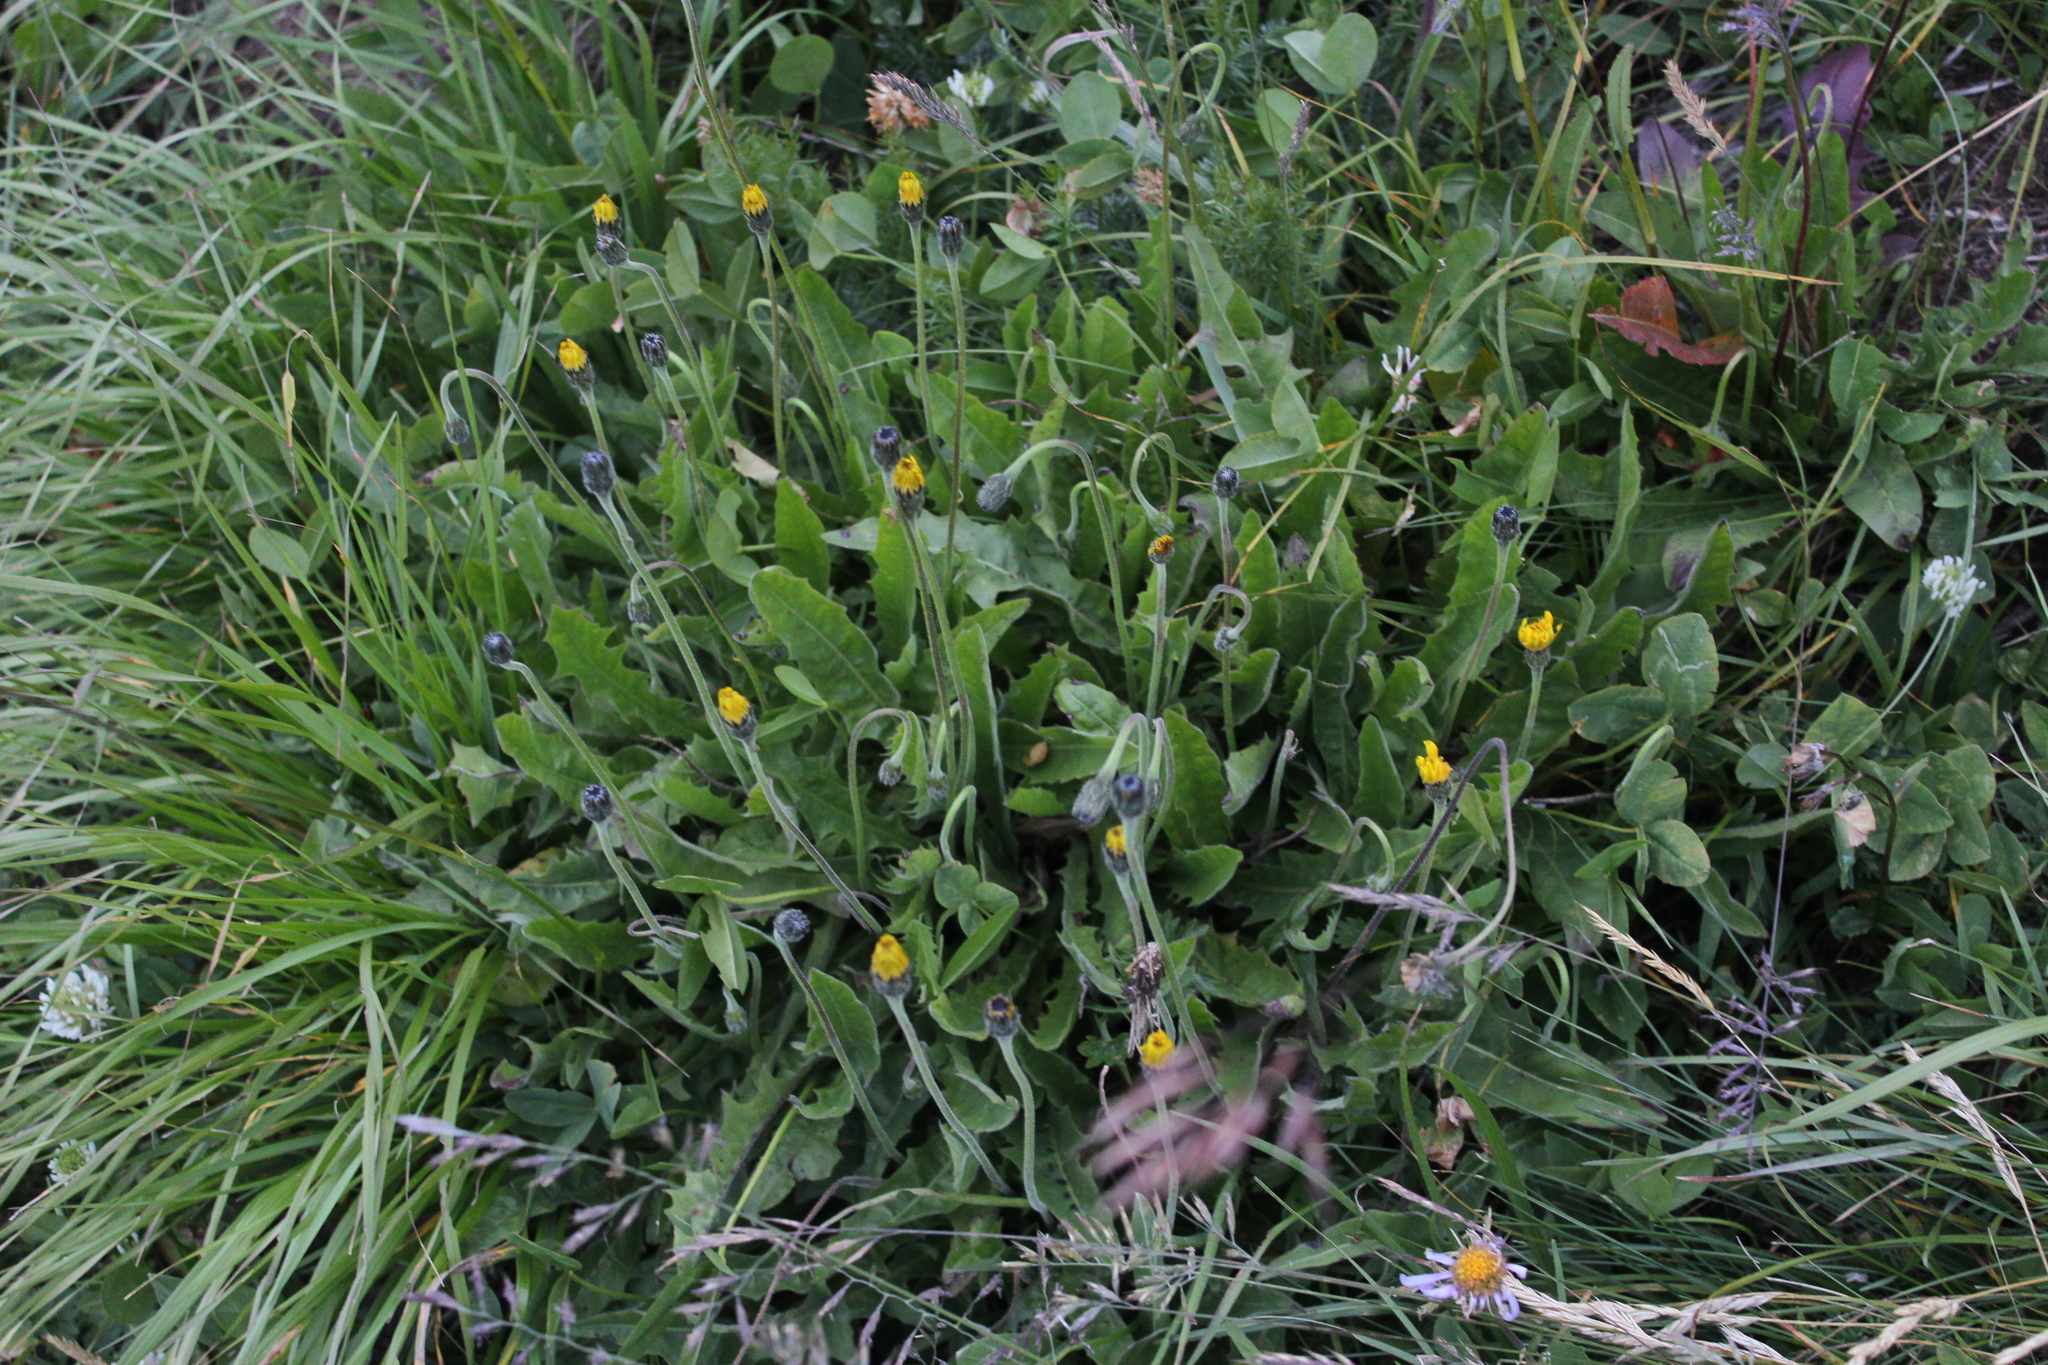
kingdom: Plantae
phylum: Tracheophyta
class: Magnoliopsida
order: Asterales
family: Asteraceae
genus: Leontodon
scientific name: Leontodon caucasicus
